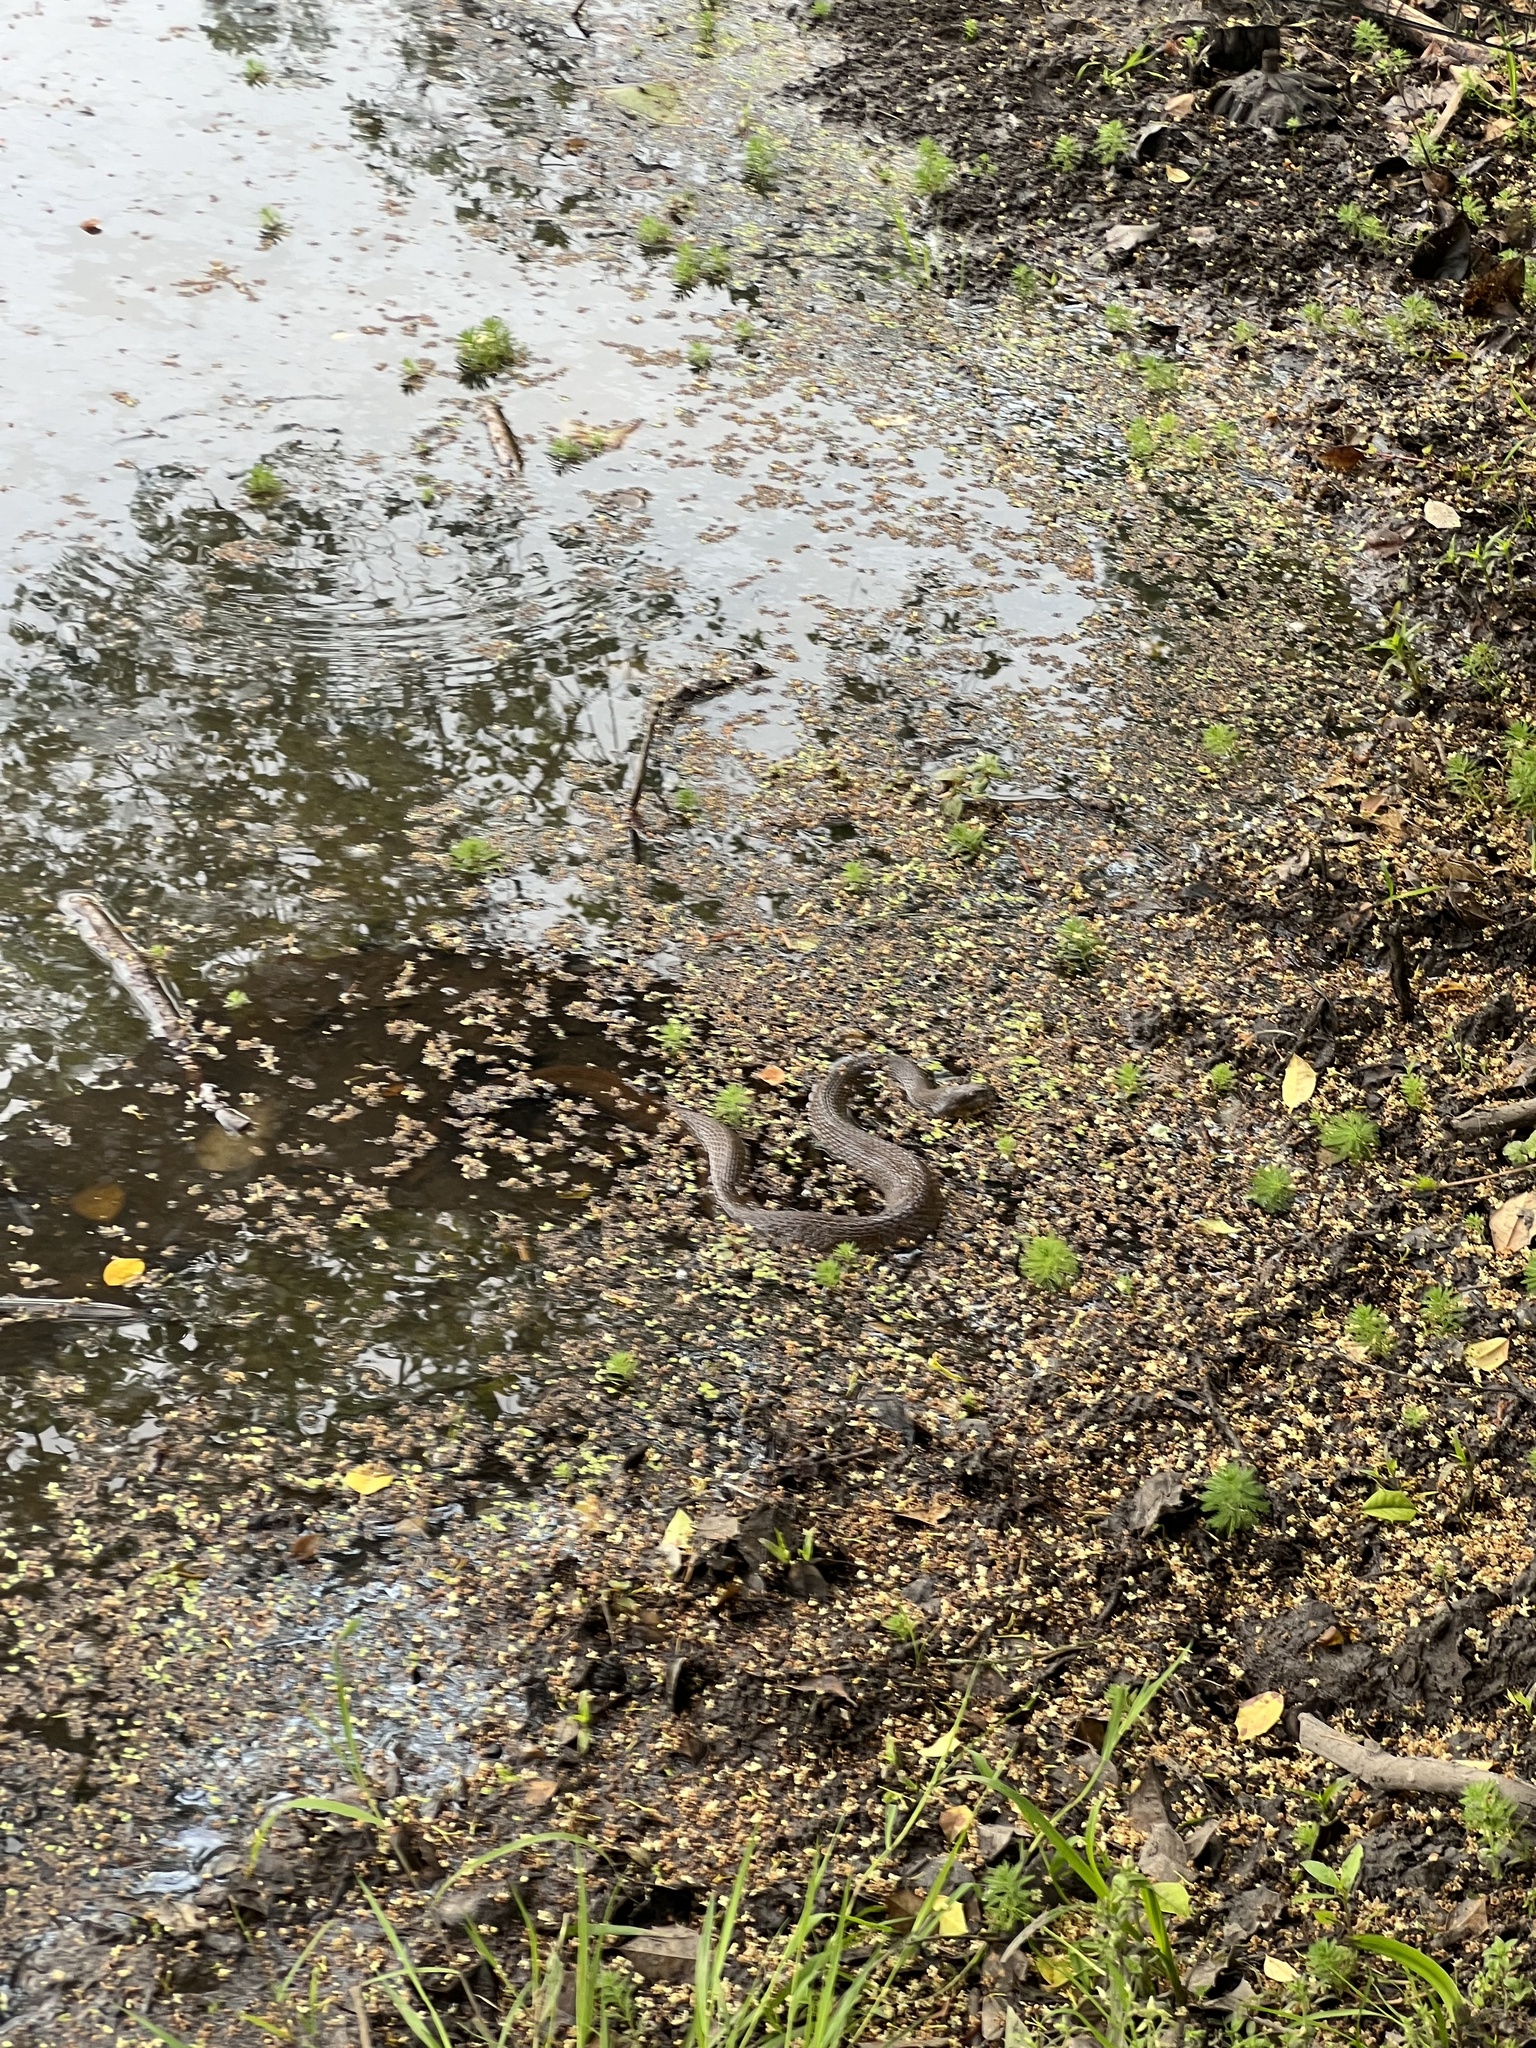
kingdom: Animalia
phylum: Chordata
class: Squamata
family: Colubridae
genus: Nerodia
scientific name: Nerodia sipedon
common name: Northern water snake
